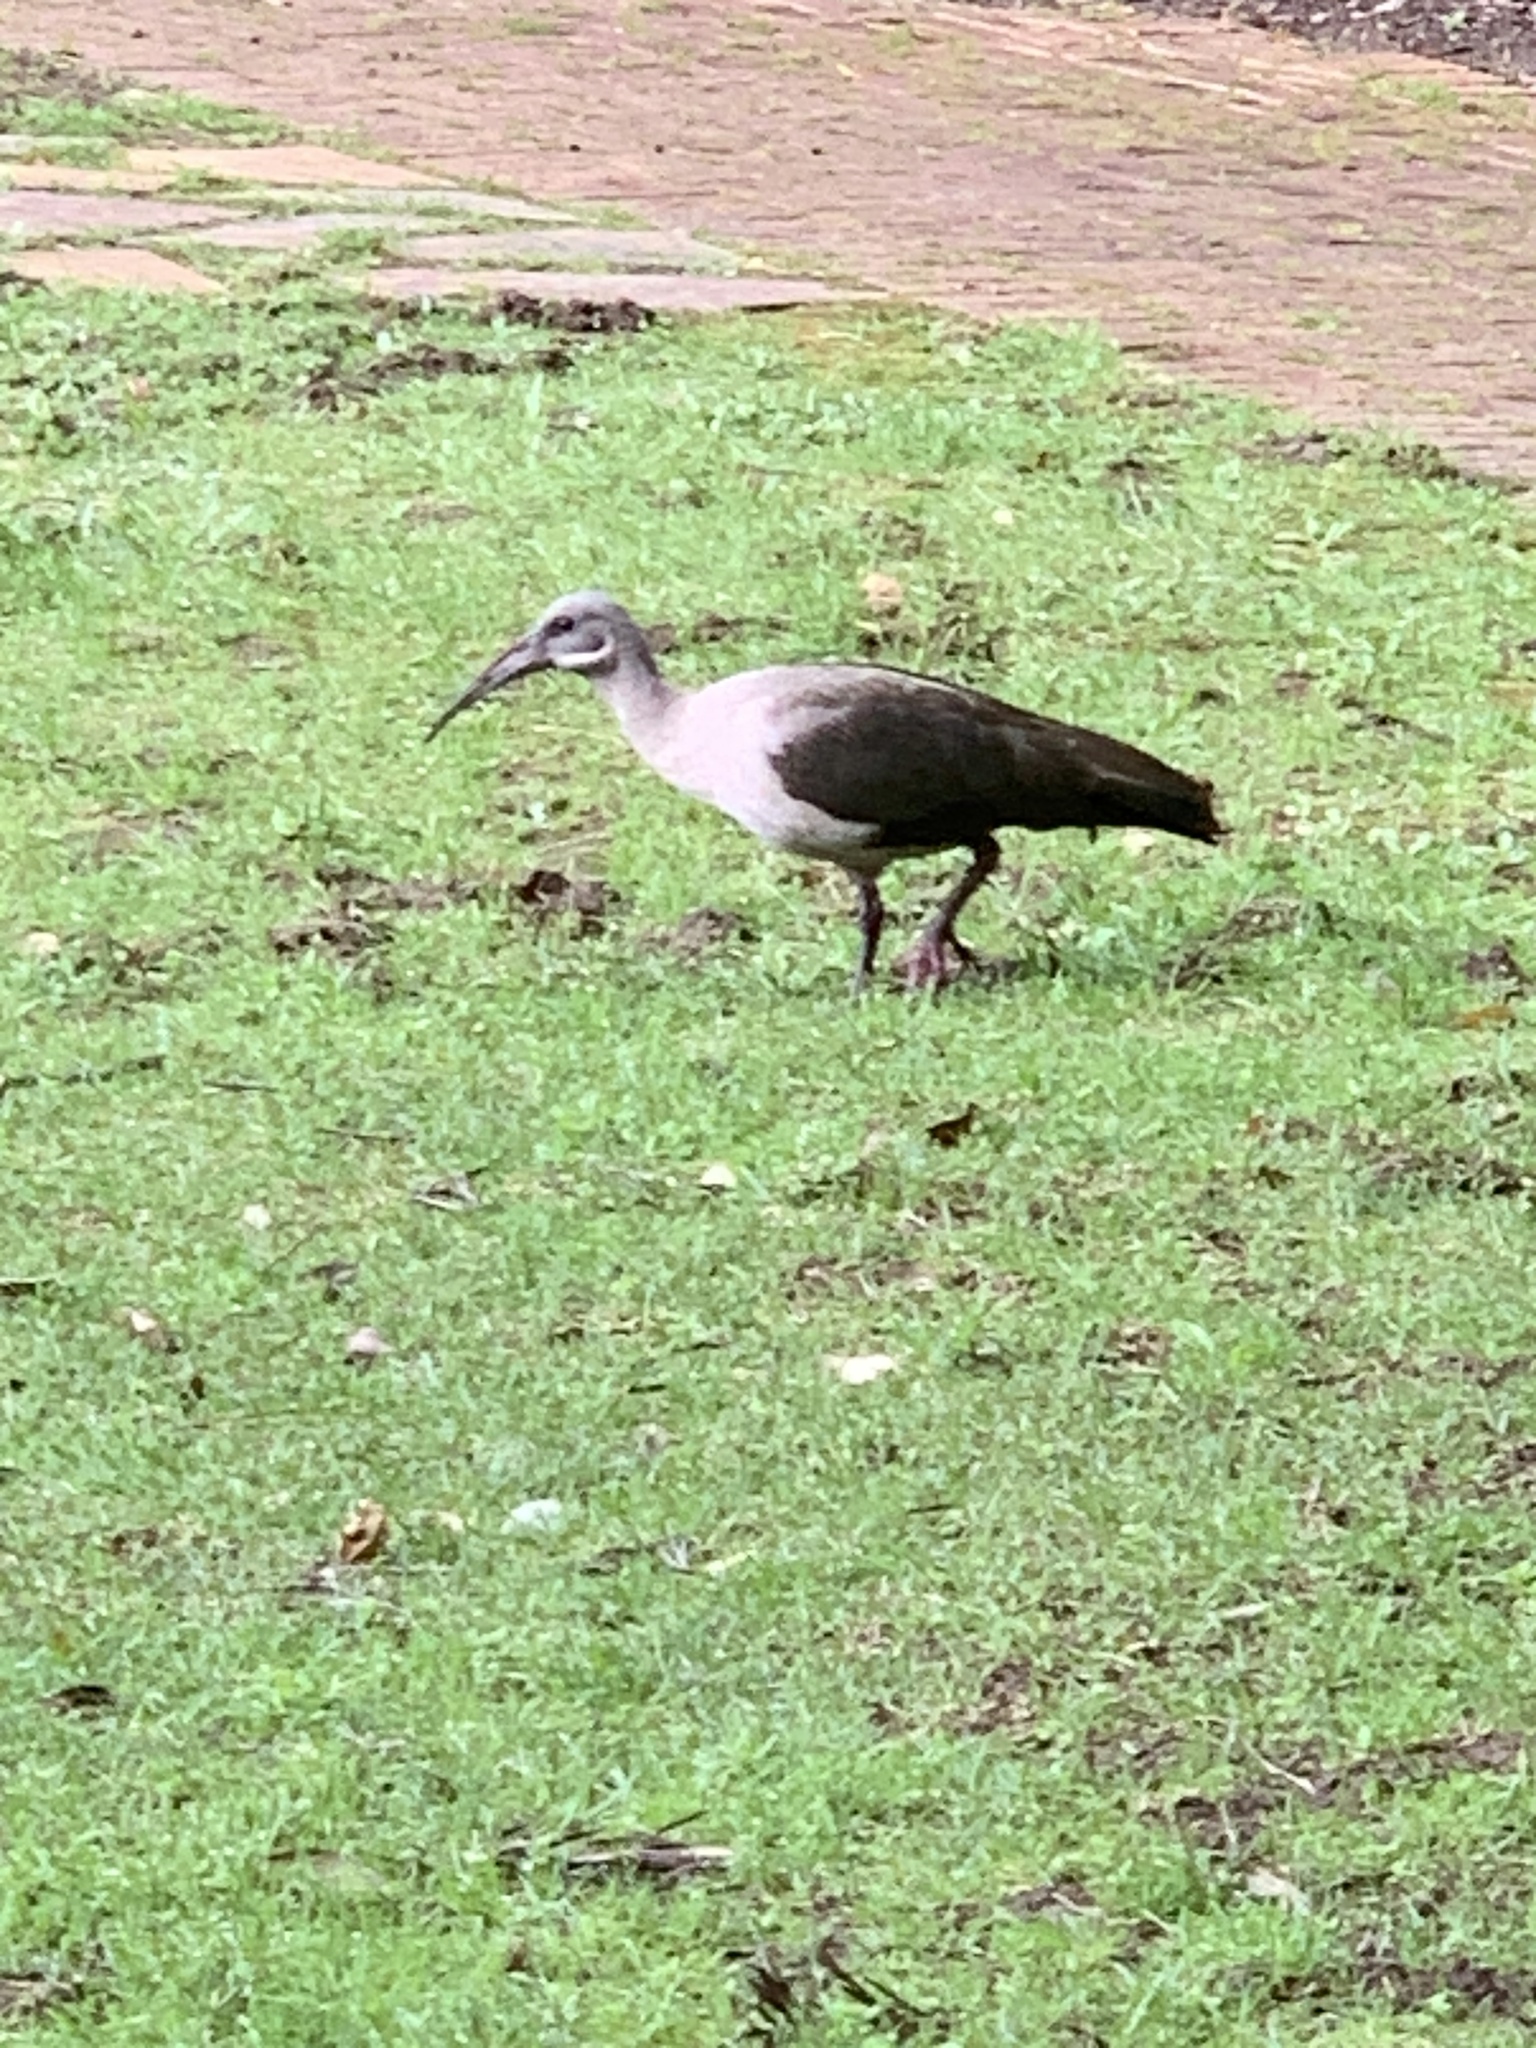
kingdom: Animalia
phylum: Chordata
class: Aves
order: Pelecaniformes
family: Threskiornithidae
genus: Bostrychia
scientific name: Bostrychia hagedash
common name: Hadada ibis
